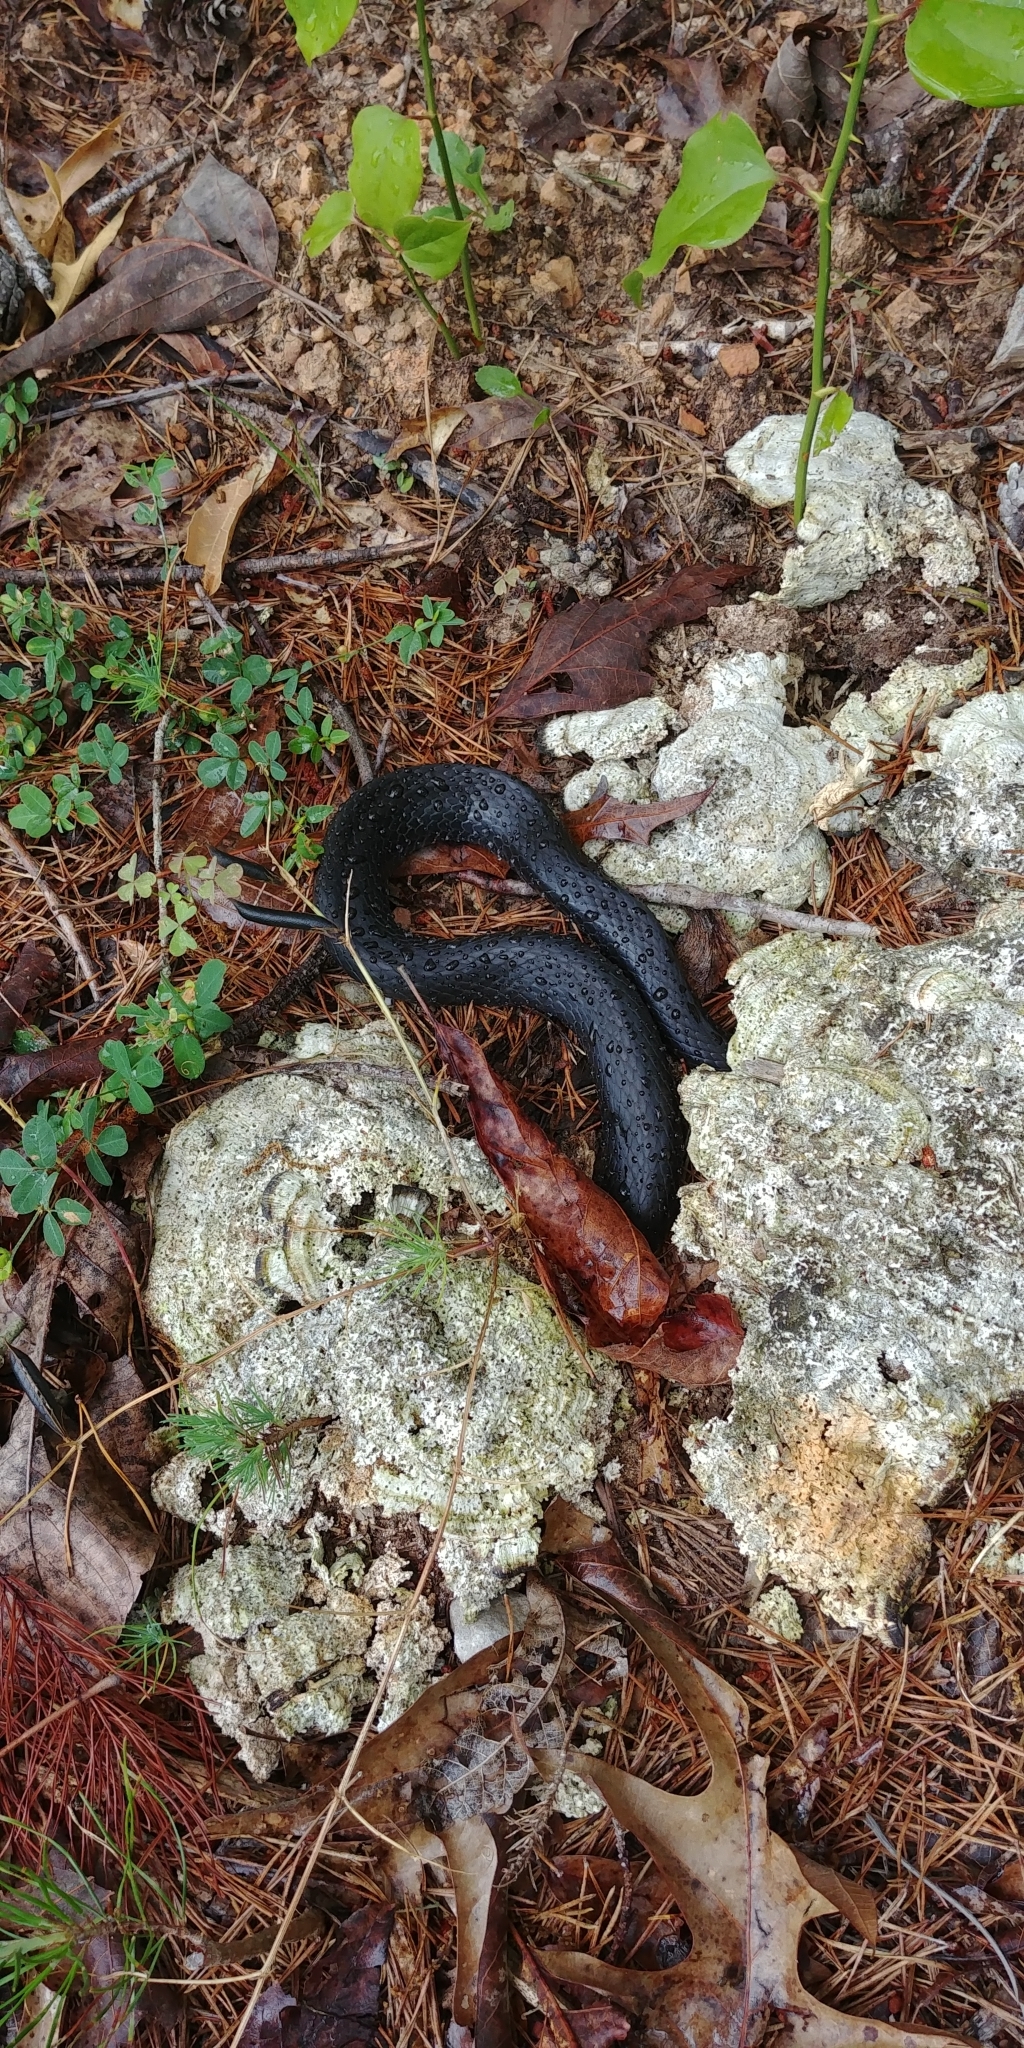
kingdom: Animalia
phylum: Chordata
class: Squamata
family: Colubridae
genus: Coluber
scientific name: Coluber constrictor
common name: Eastern racer
